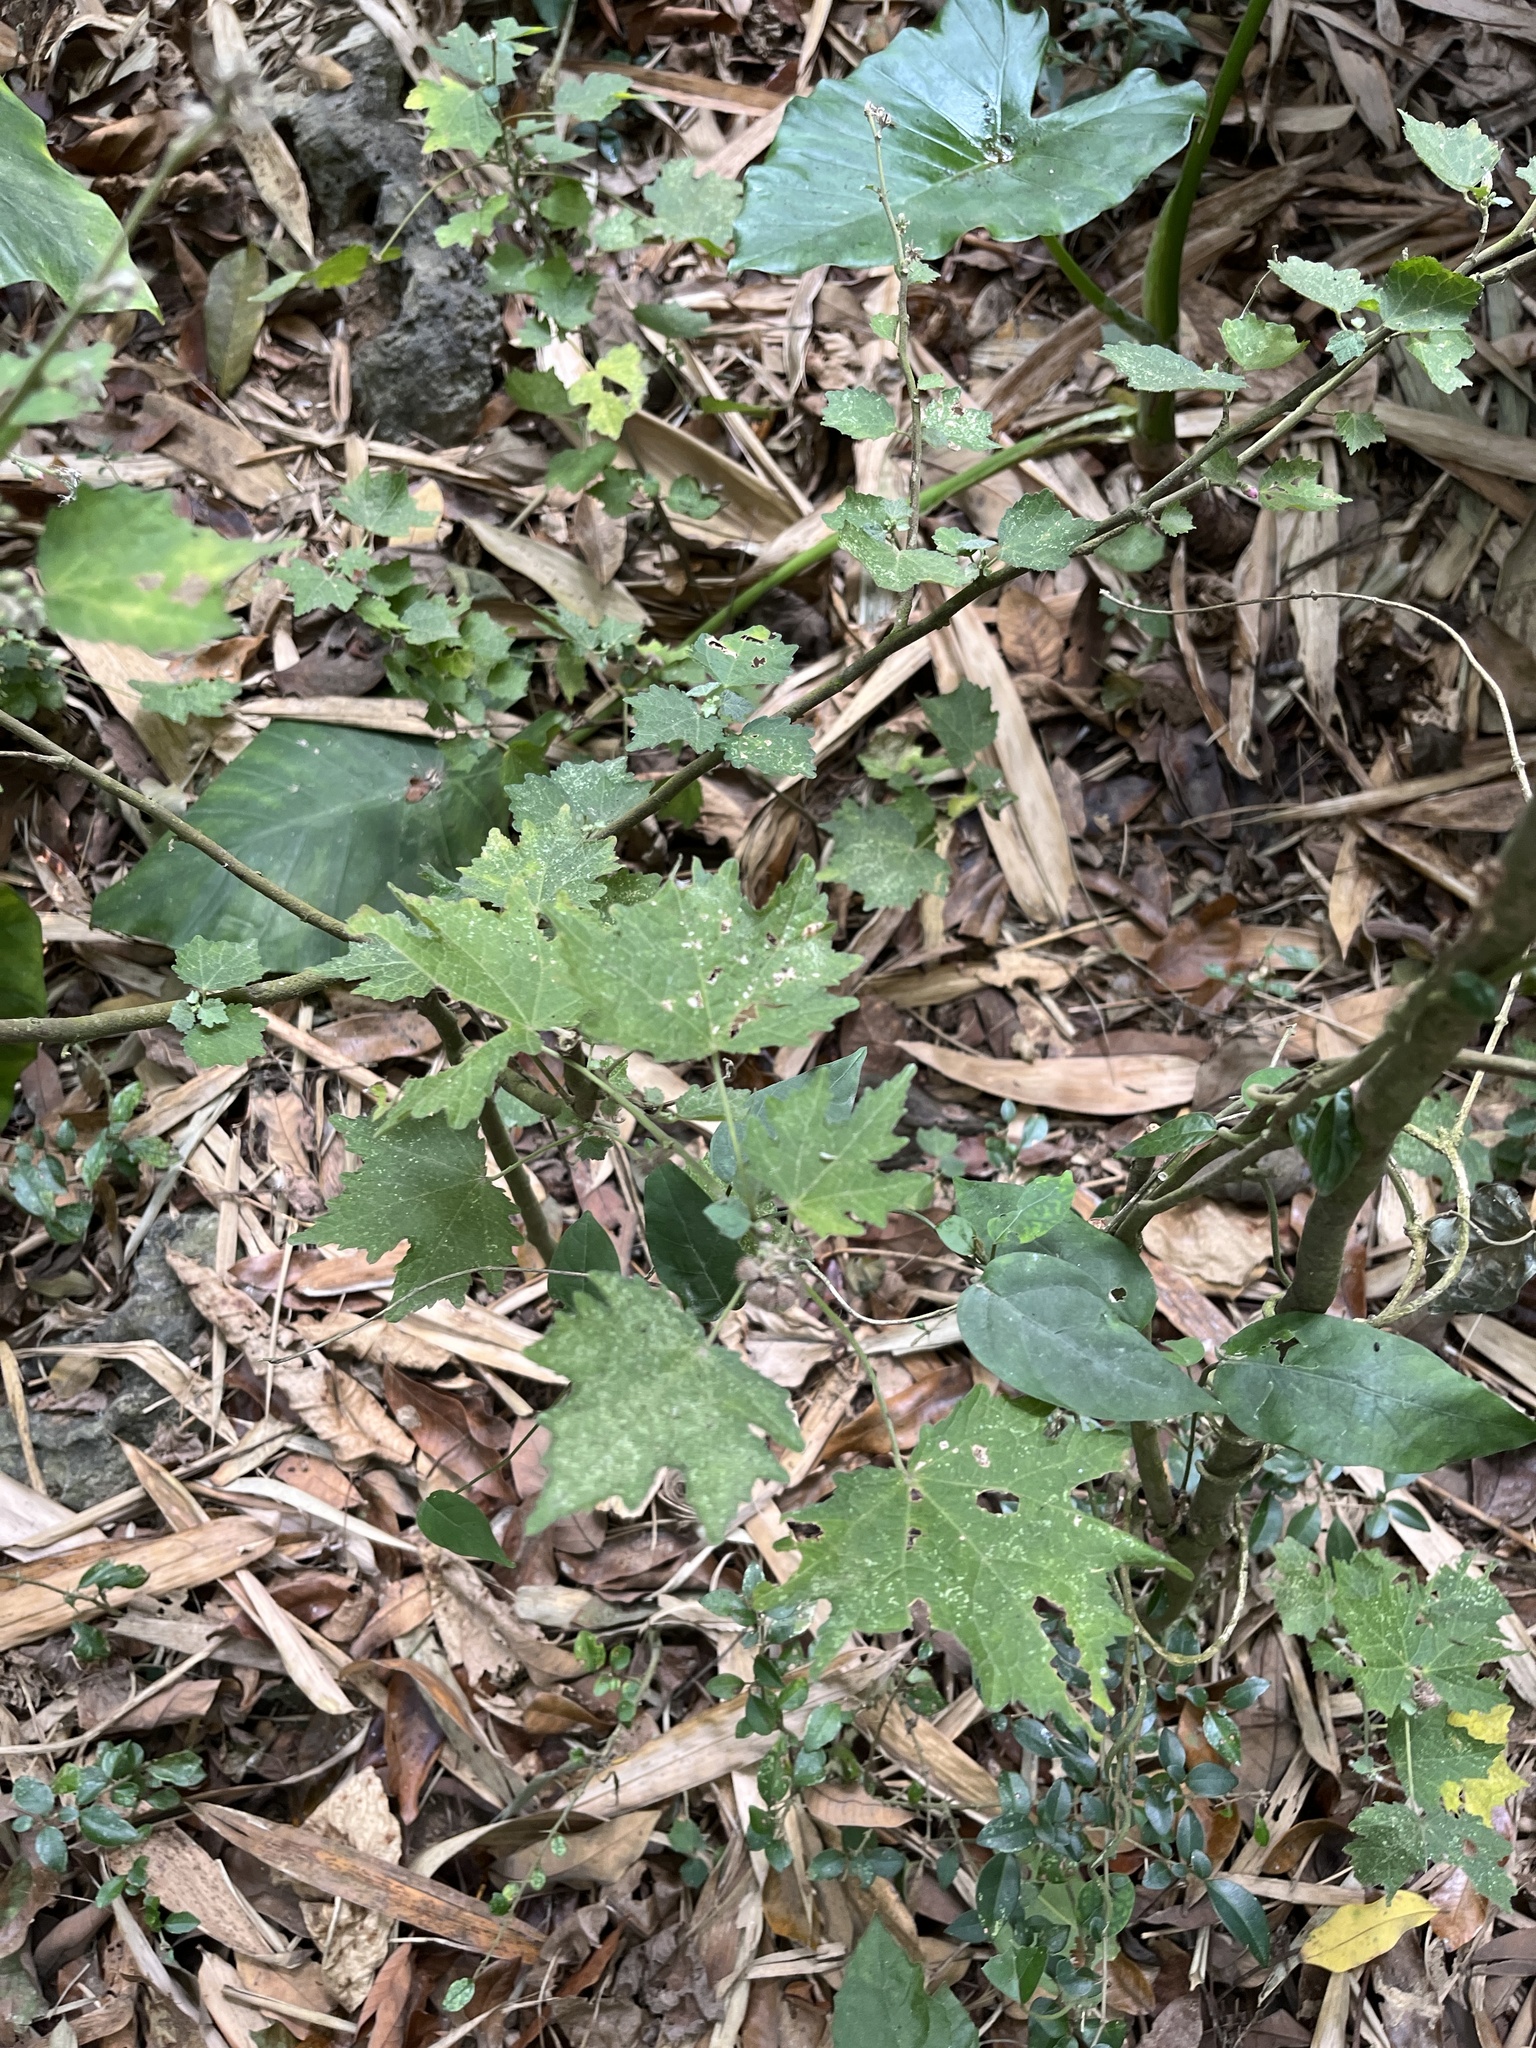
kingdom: Plantae
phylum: Tracheophyta
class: Magnoliopsida
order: Malvales
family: Malvaceae
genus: Urena
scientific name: Urena procumbens
